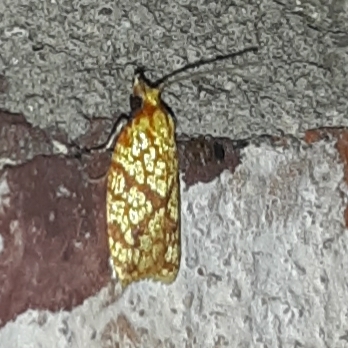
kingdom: Animalia
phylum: Arthropoda
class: Insecta
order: Lepidoptera
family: Tortricidae
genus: Sparganothis
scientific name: Sparganothis sulfureana
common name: Sparganothis fruitworm moth
